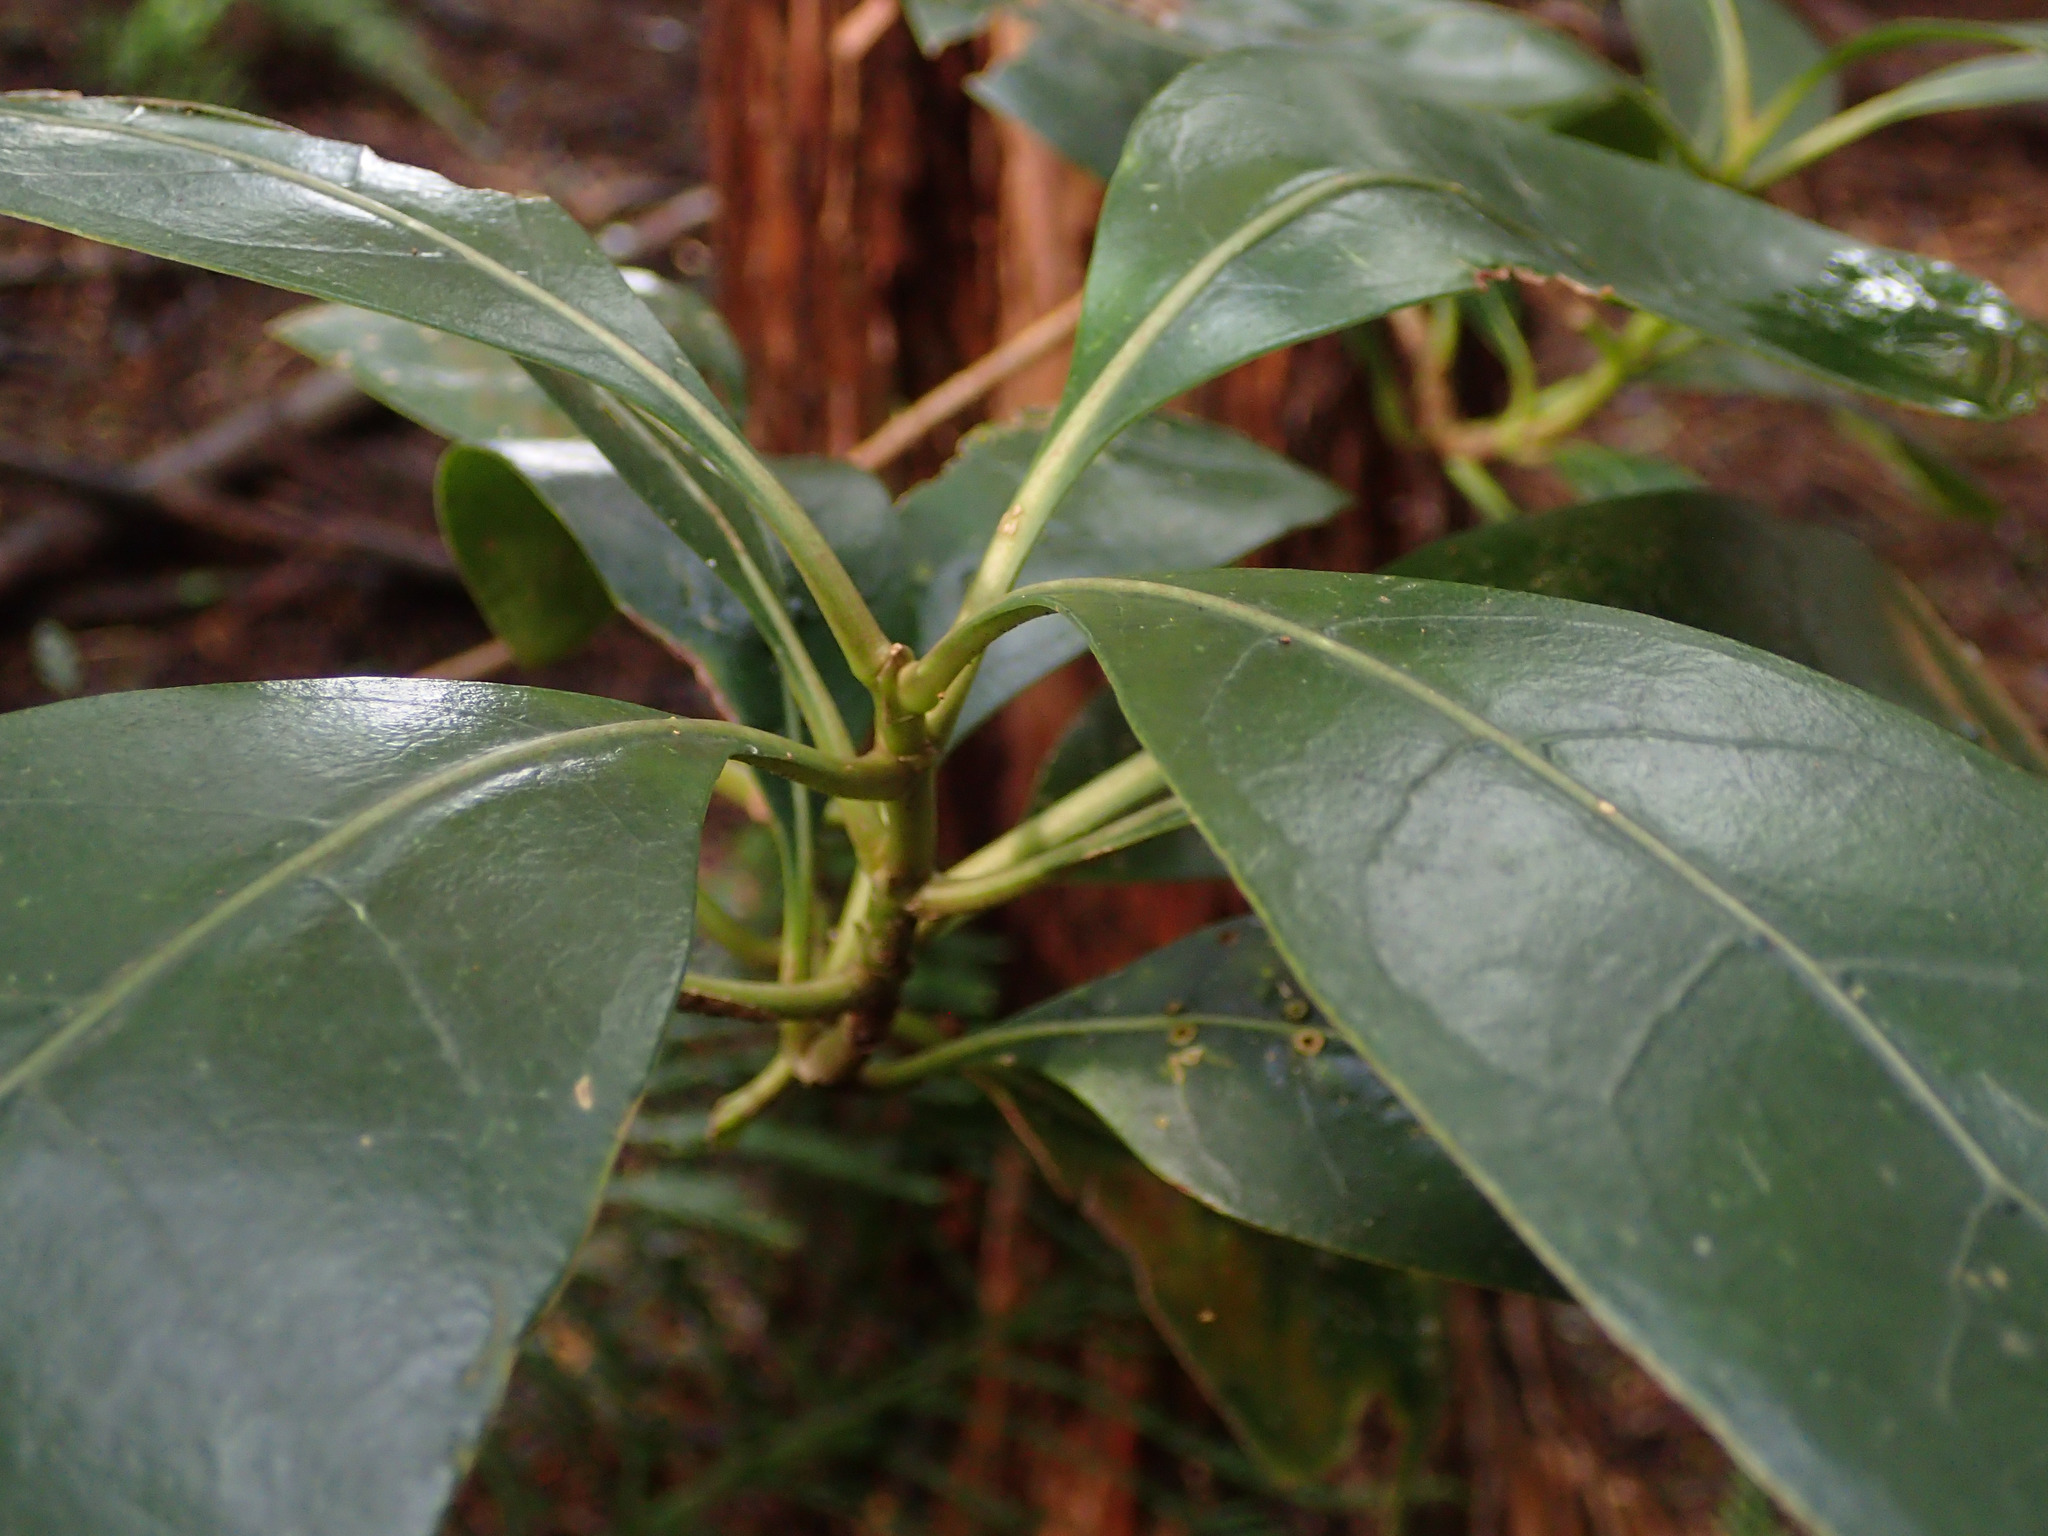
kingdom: Plantae
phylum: Tracheophyta
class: Magnoliopsida
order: Gentianales
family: Rubiaceae
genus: Coprosma
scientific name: Coprosma lucida
